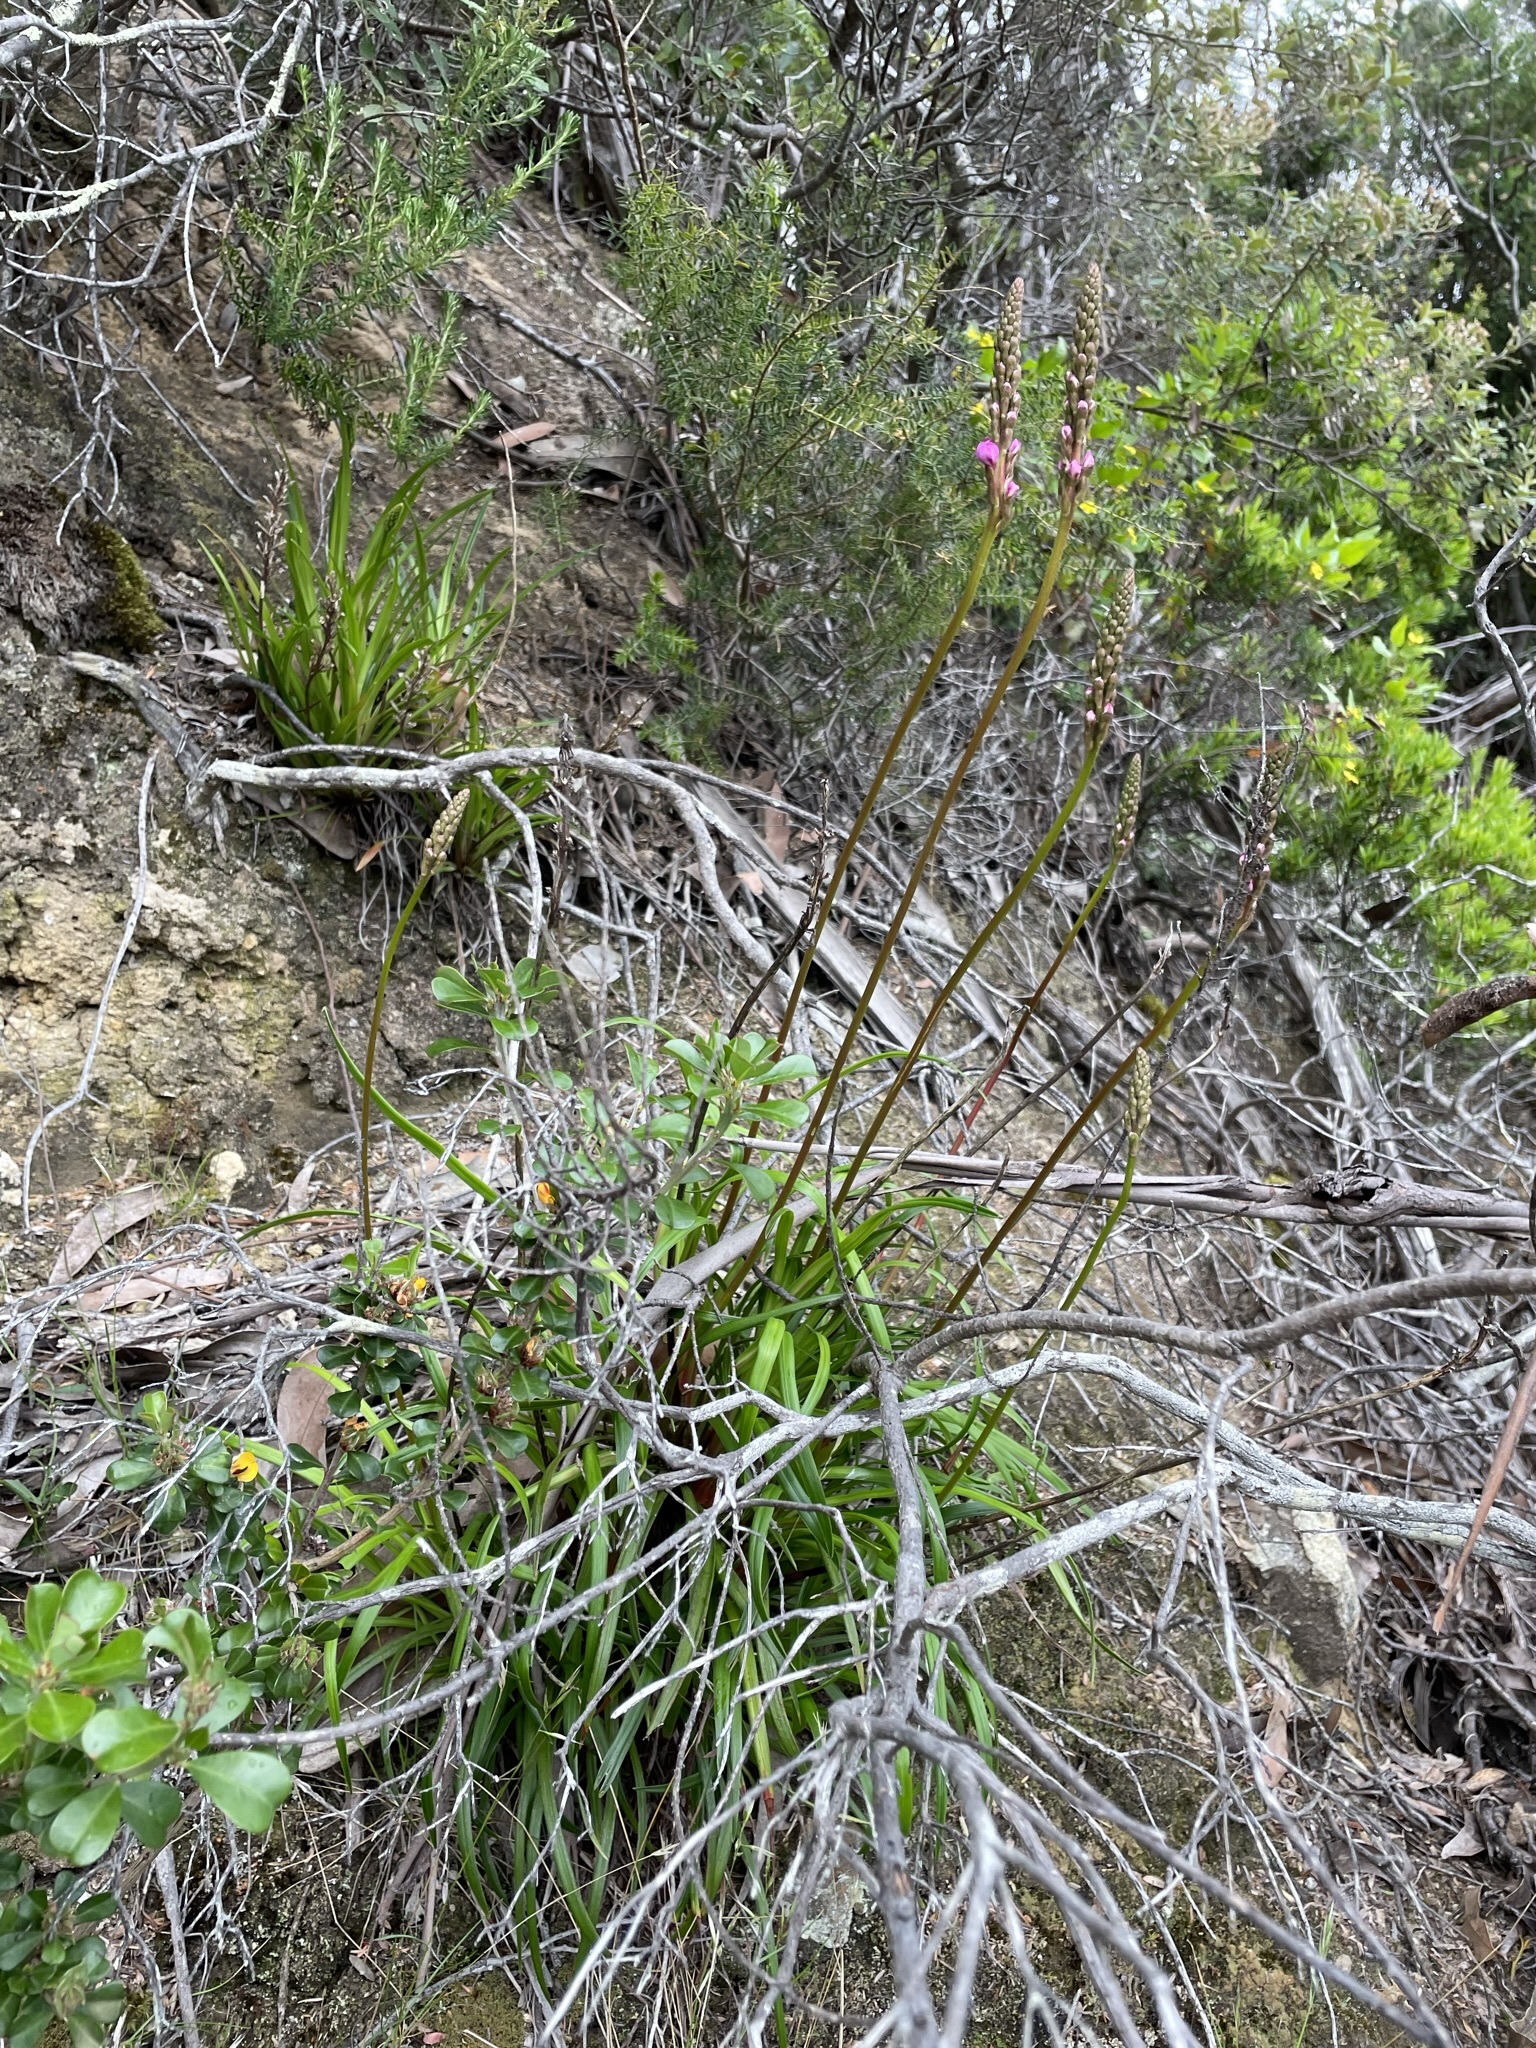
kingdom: Plantae
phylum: Tracheophyta
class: Magnoliopsida
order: Asterales
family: Stylidiaceae
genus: Stylidium
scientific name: Stylidium armeria
